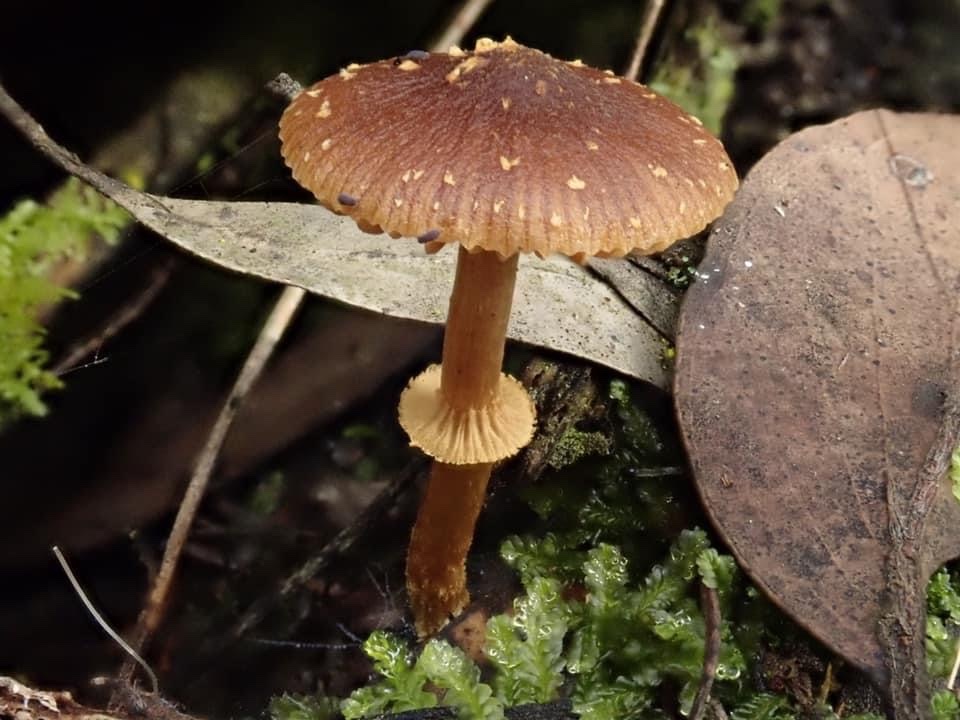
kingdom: Fungi
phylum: Basidiomycota
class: Agaricomycetes
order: Agaricales
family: Bolbitiaceae
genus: Descolea
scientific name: Descolea recedens
